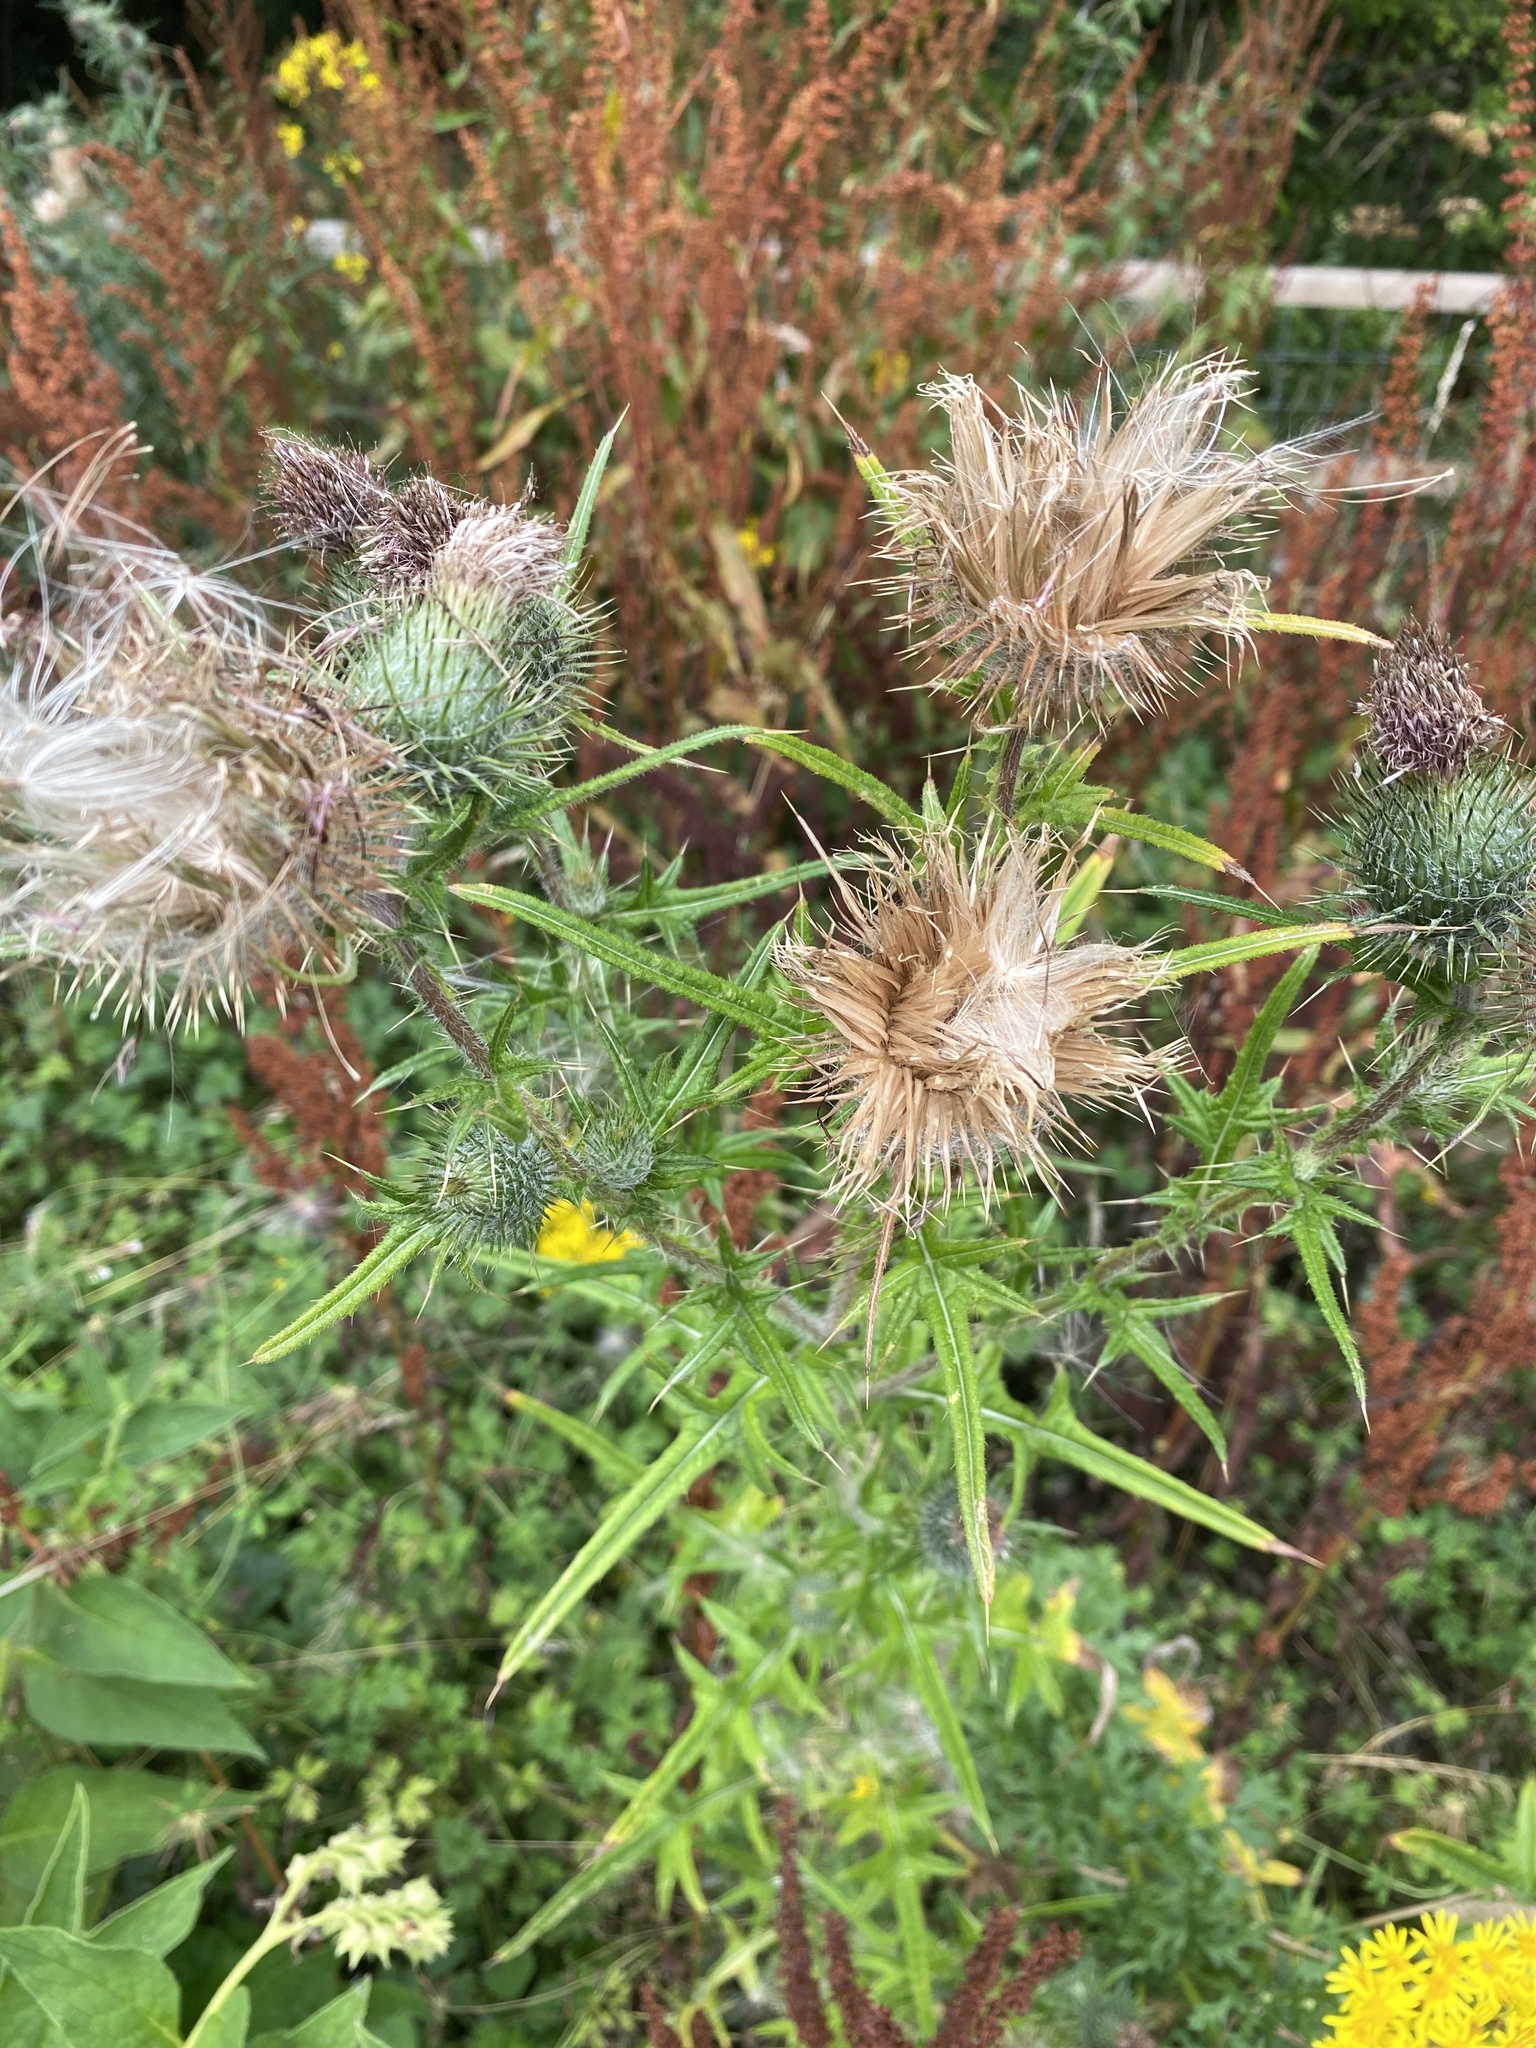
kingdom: Plantae
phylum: Tracheophyta
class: Magnoliopsida
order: Asterales
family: Asteraceae
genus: Cirsium
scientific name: Cirsium vulgare
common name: Bull thistle
